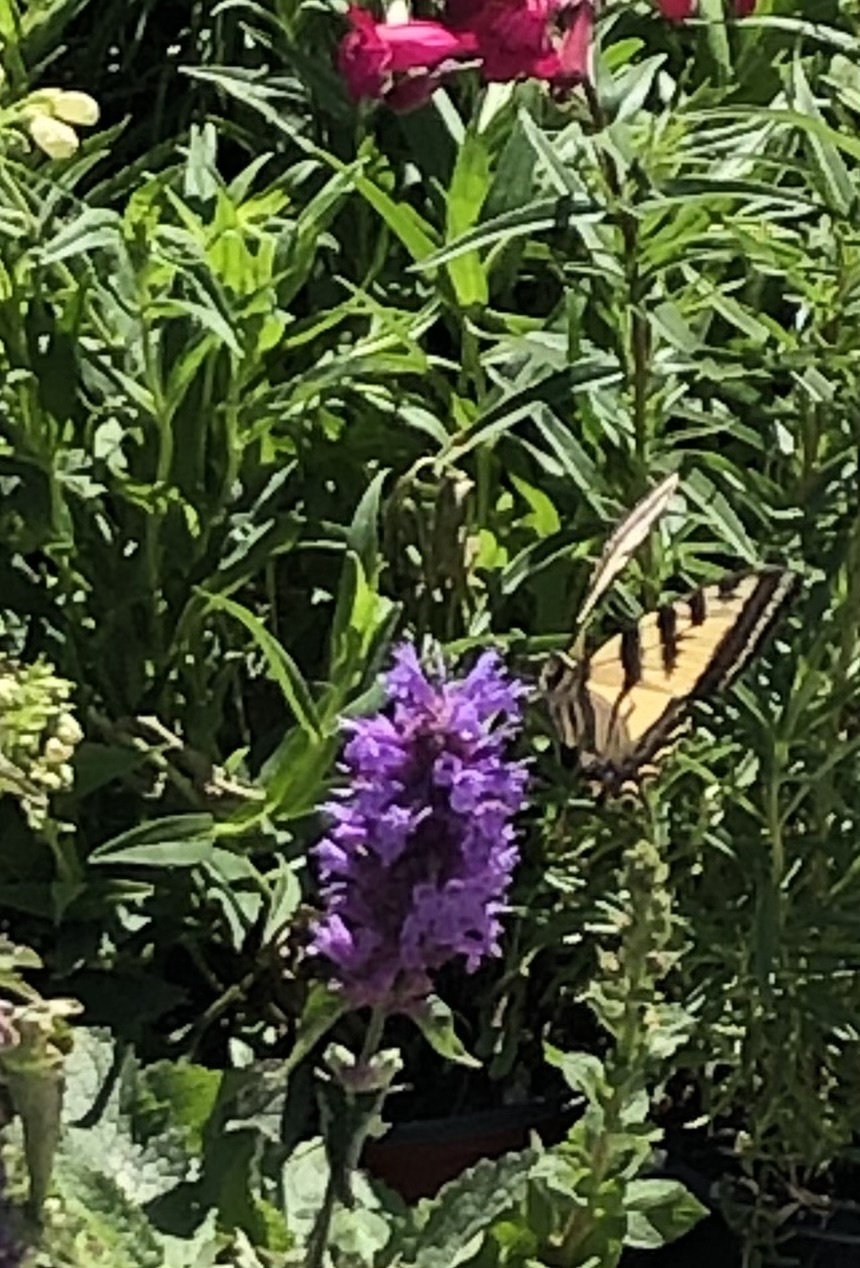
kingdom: Animalia
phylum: Arthropoda
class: Insecta
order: Lepidoptera
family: Papilionidae
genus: Papilio
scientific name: Papilio rutulus
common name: Western tiger swallowtail
